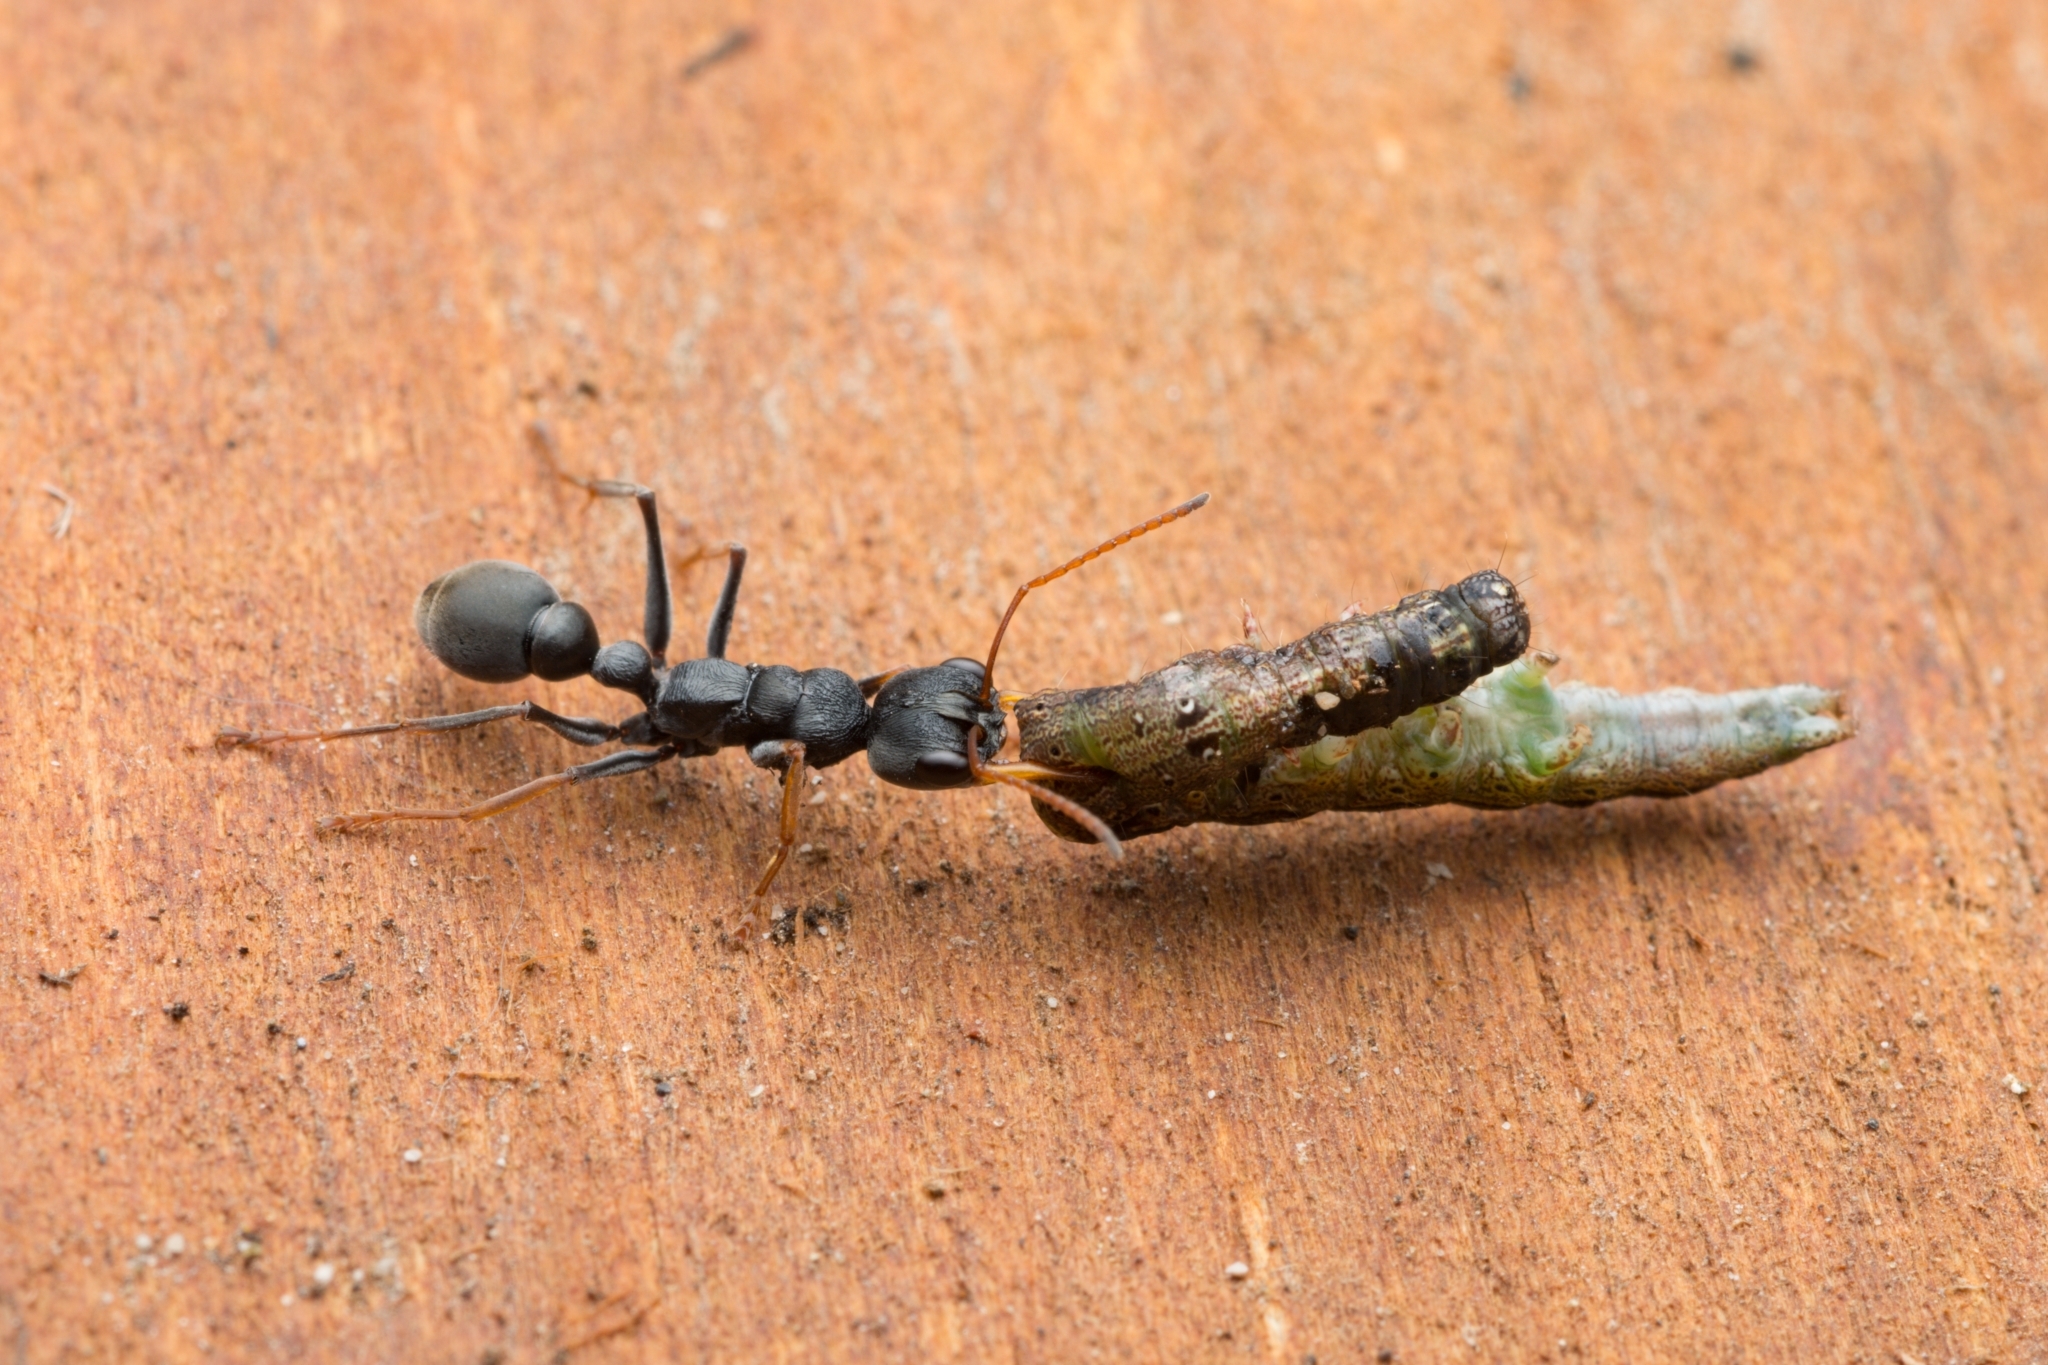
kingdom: Animalia
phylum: Arthropoda
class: Insecta
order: Hymenoptera
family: Formicidae
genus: Myrmecia
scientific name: Myrmecia pilosula
